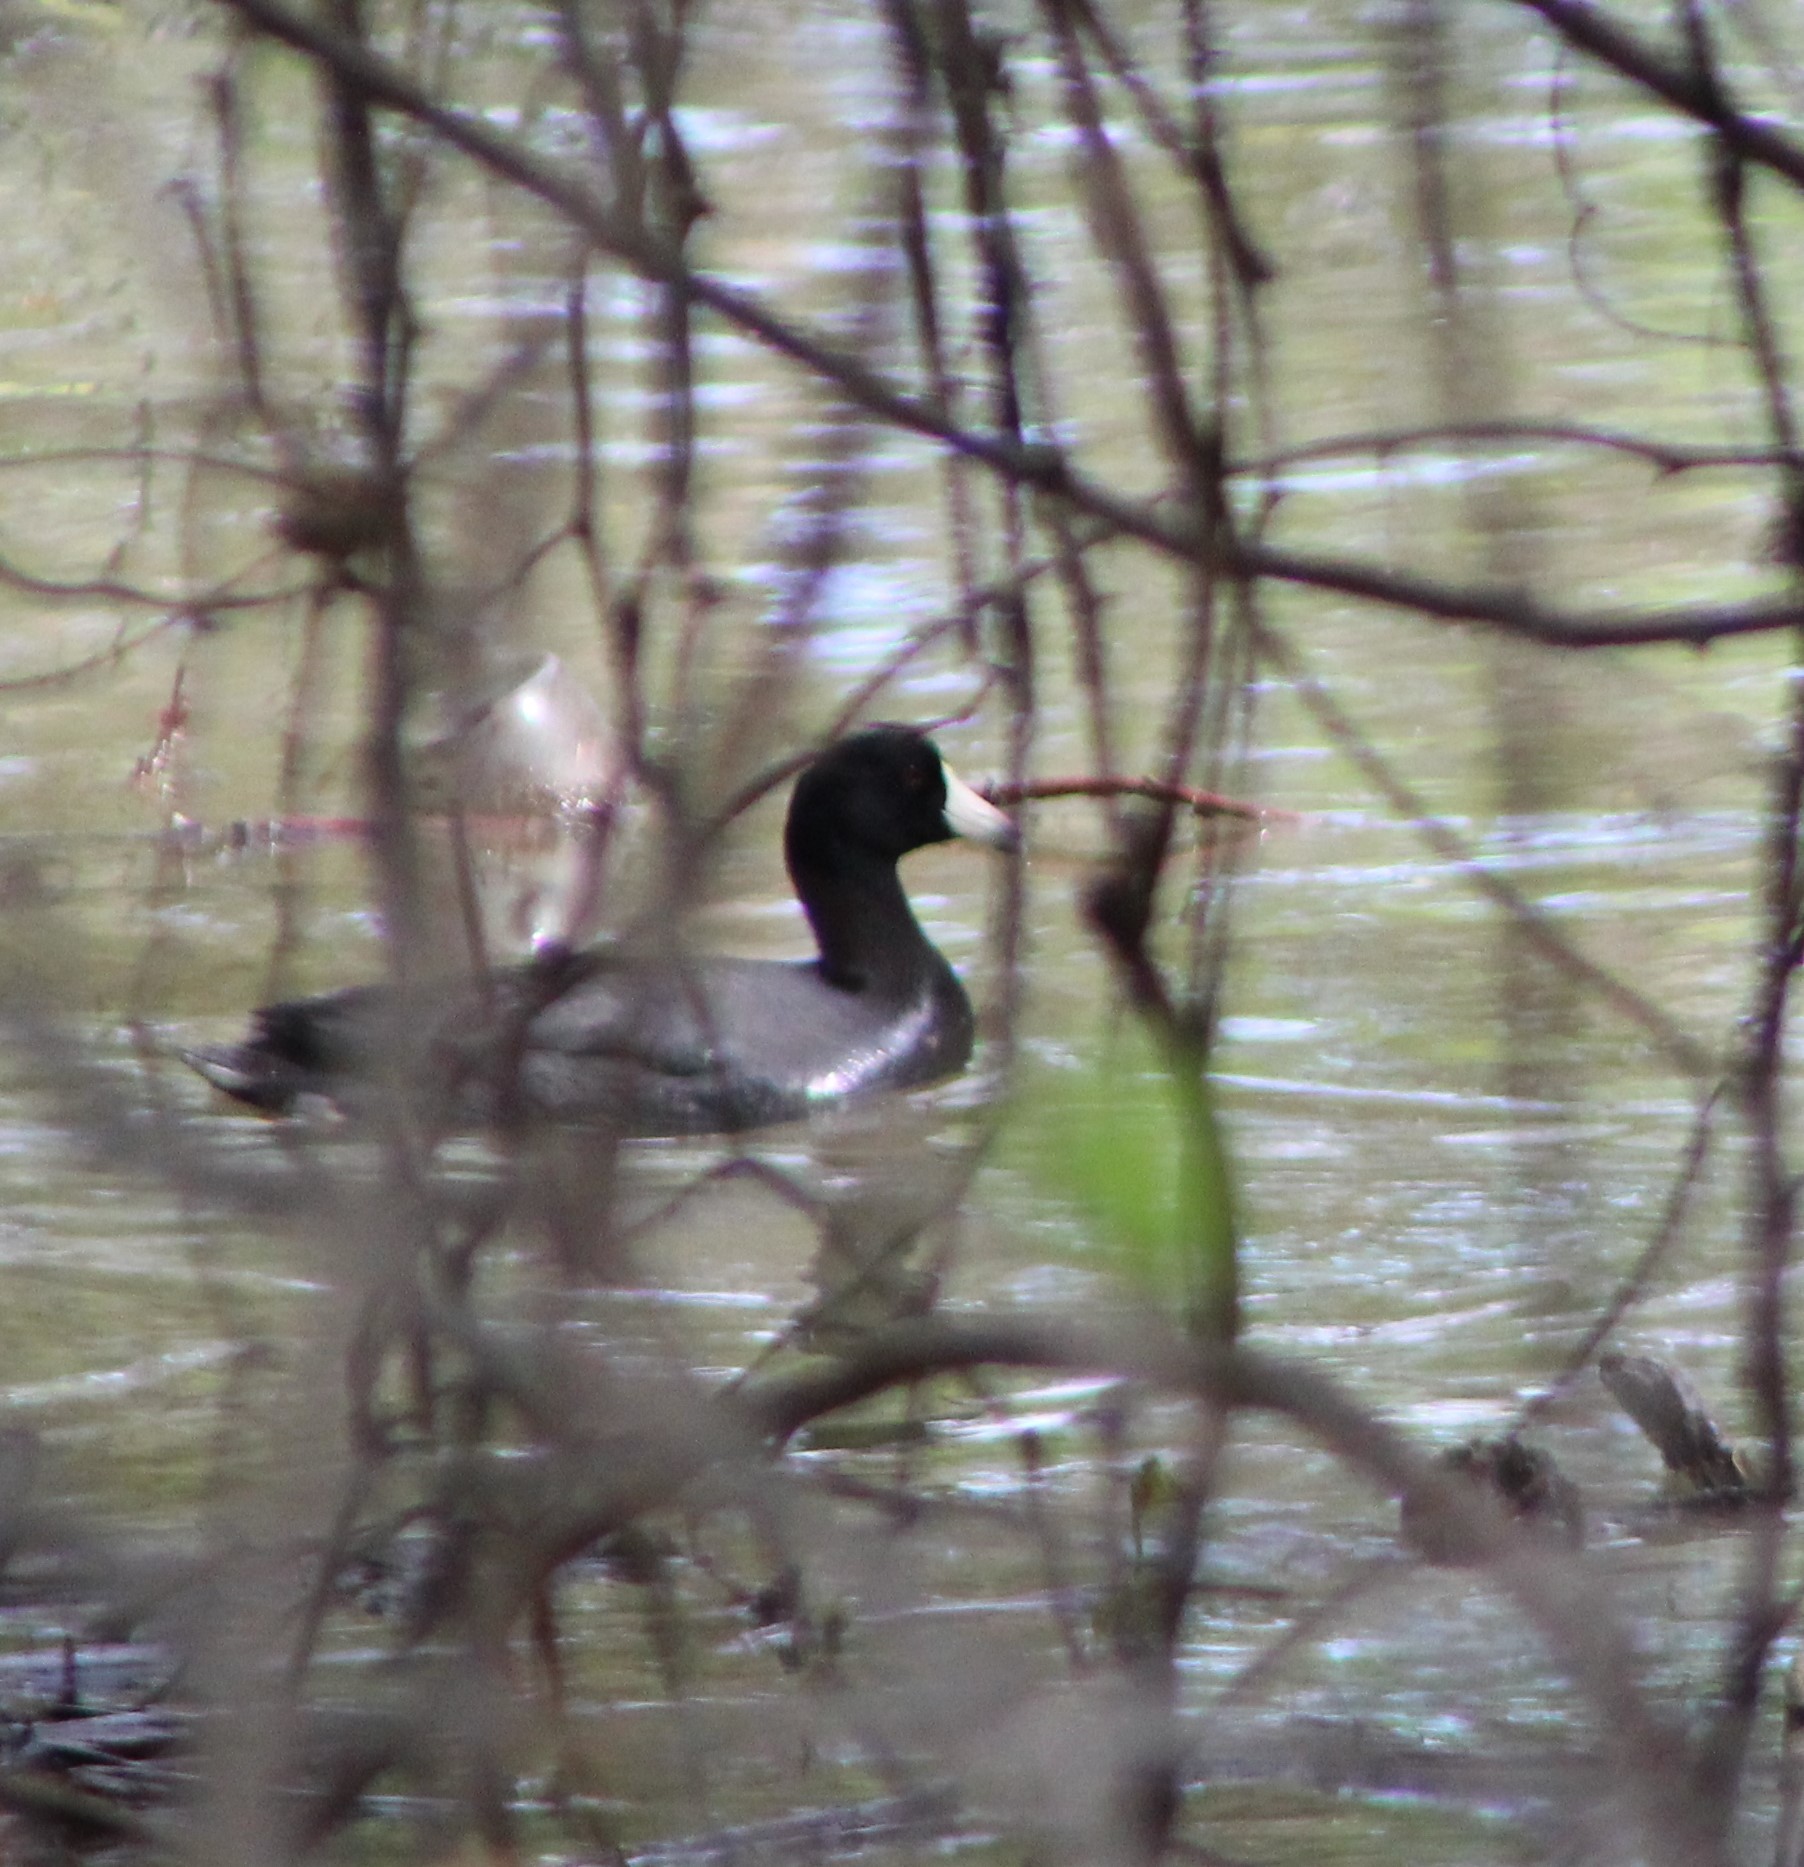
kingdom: Animalia
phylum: Chordata
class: Aves
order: Gruiformes
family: Rallidae
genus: Fulica
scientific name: Fulica americana
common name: American coot
